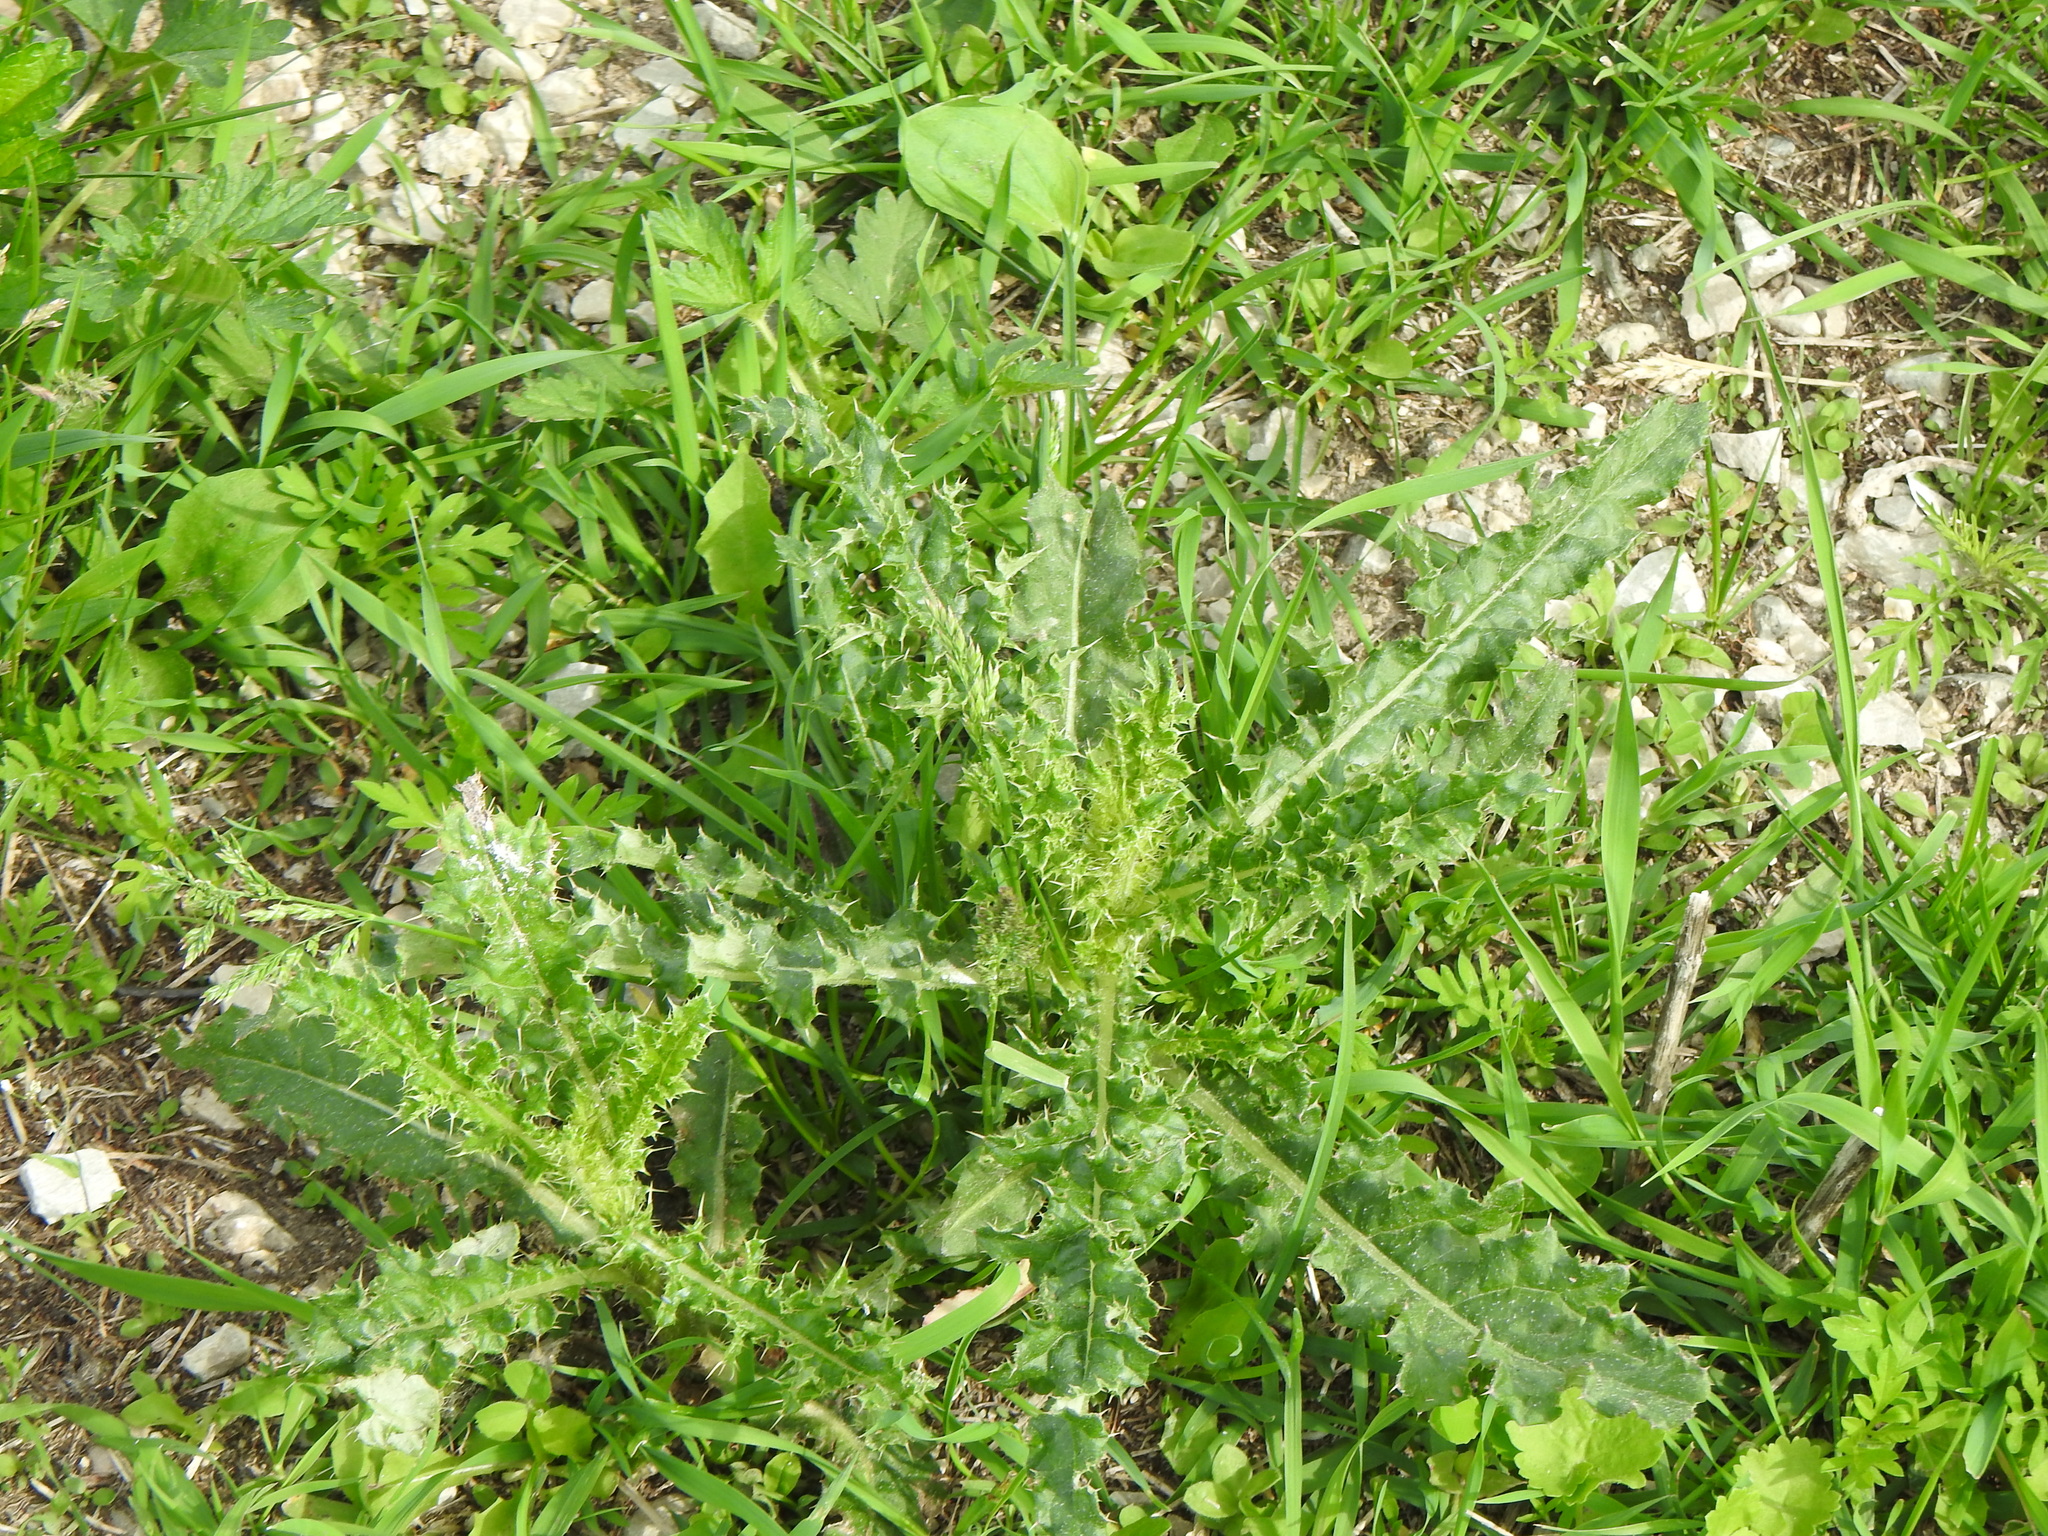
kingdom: Plantae
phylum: Tracheophyta
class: Magnoliopsida
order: Asterales
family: Asteraceae
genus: Cirsium
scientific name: Cirsium arvense
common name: Creeping thistle
